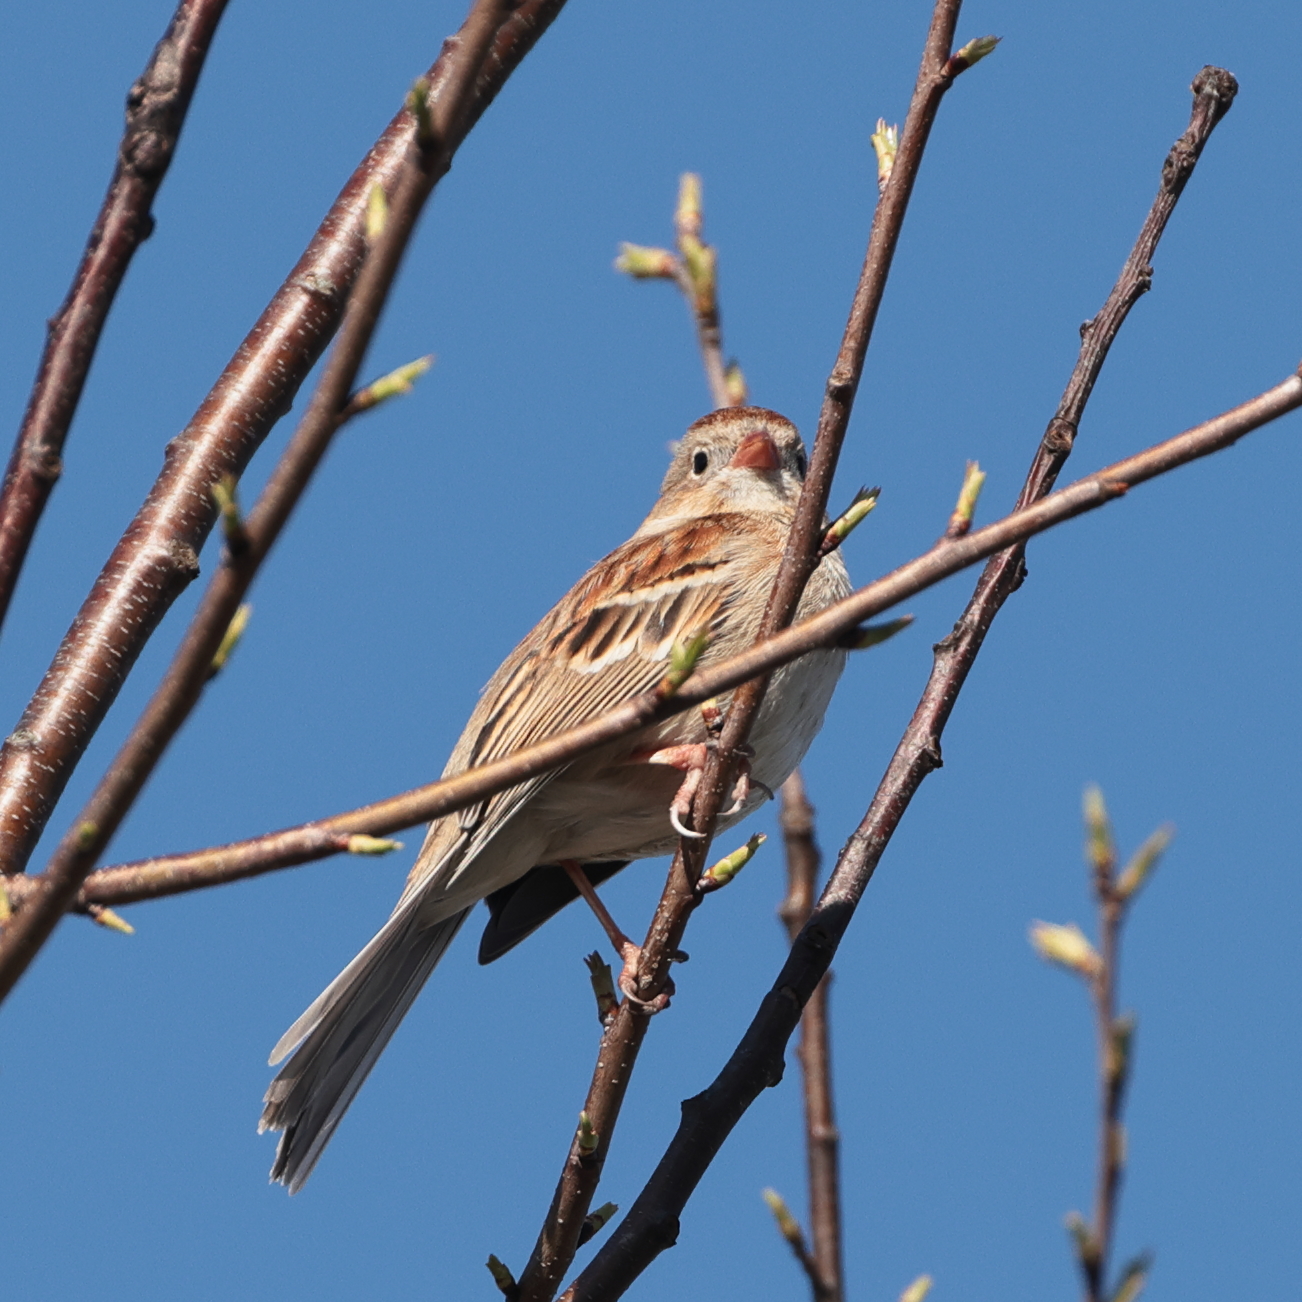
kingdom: Animalia
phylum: Chordata
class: Aves
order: Passeriformes
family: Passerellidae
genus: Spizella
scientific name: Spizella pusilla
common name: Field sparrow
